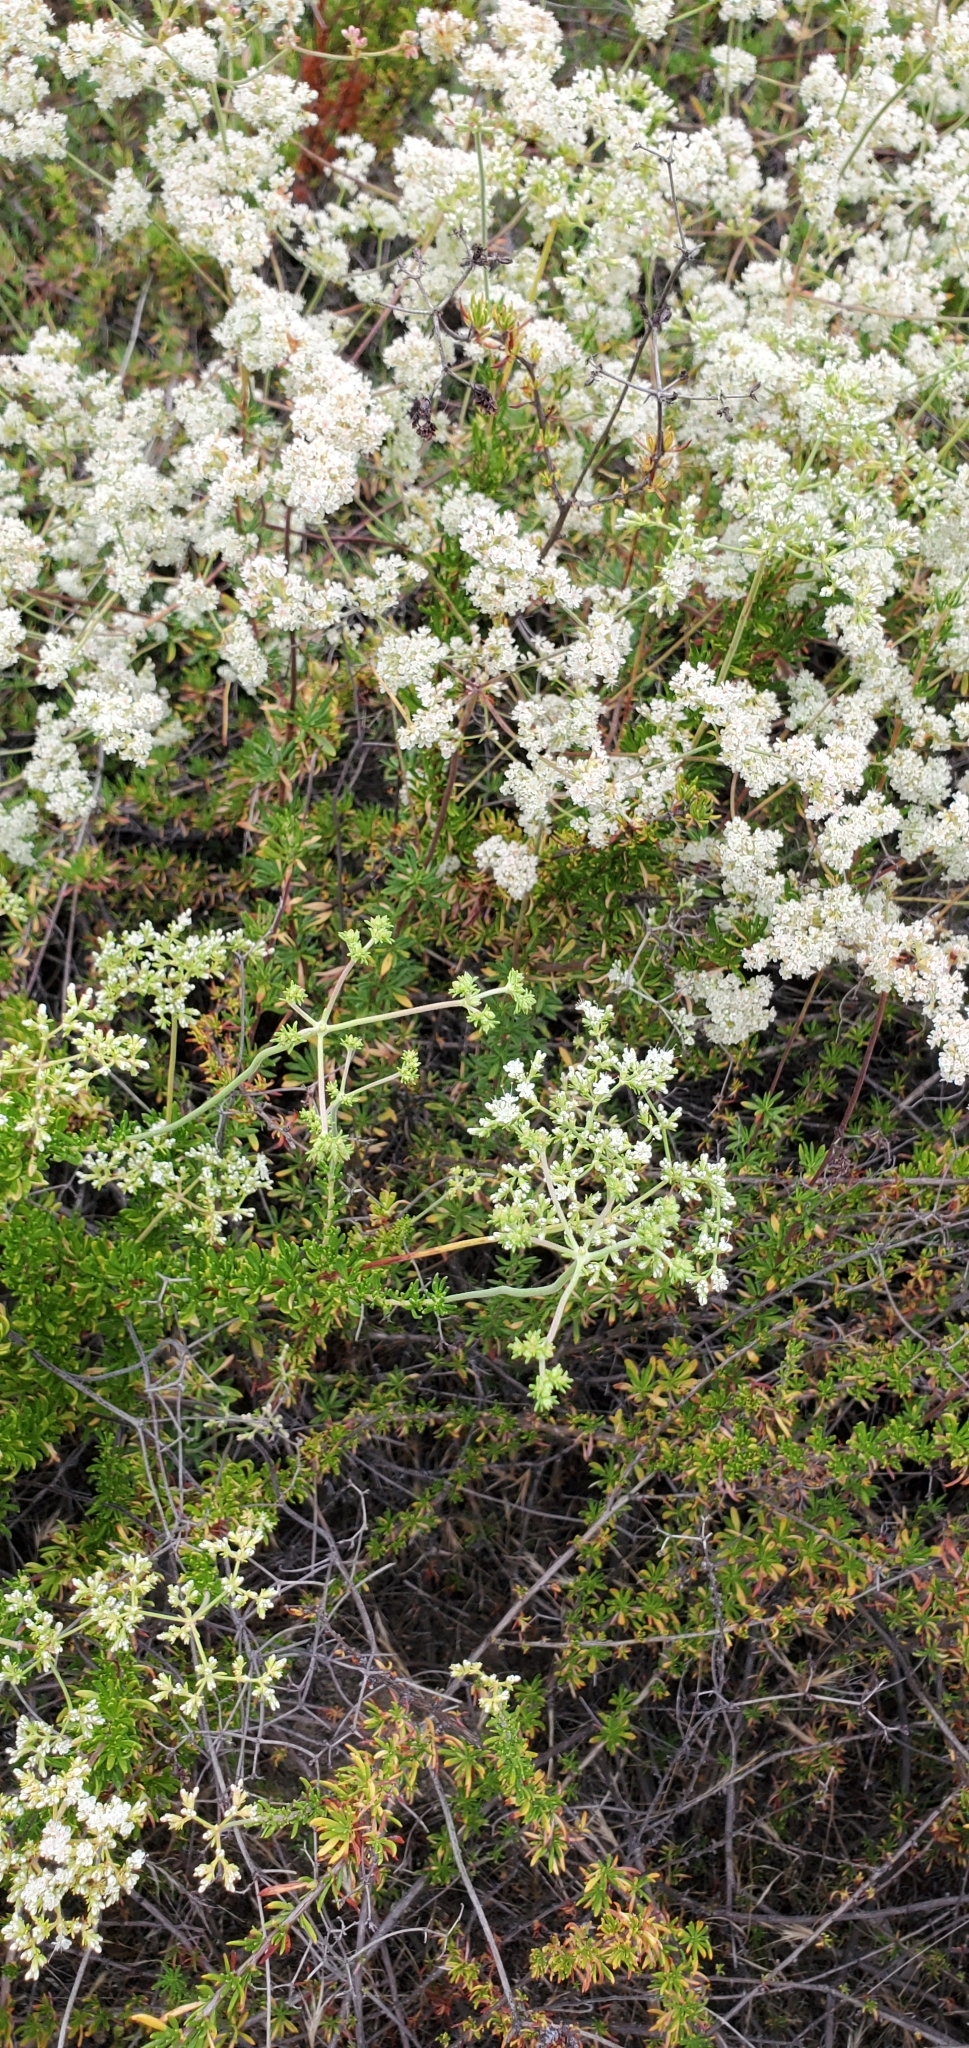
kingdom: Plantae
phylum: Tracheophyta
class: Magnoliopsida
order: Caryophyllales
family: Polygonaceae
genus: Eriogonum
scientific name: Eriogonum fasciculatum
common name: California wild buckwheat
